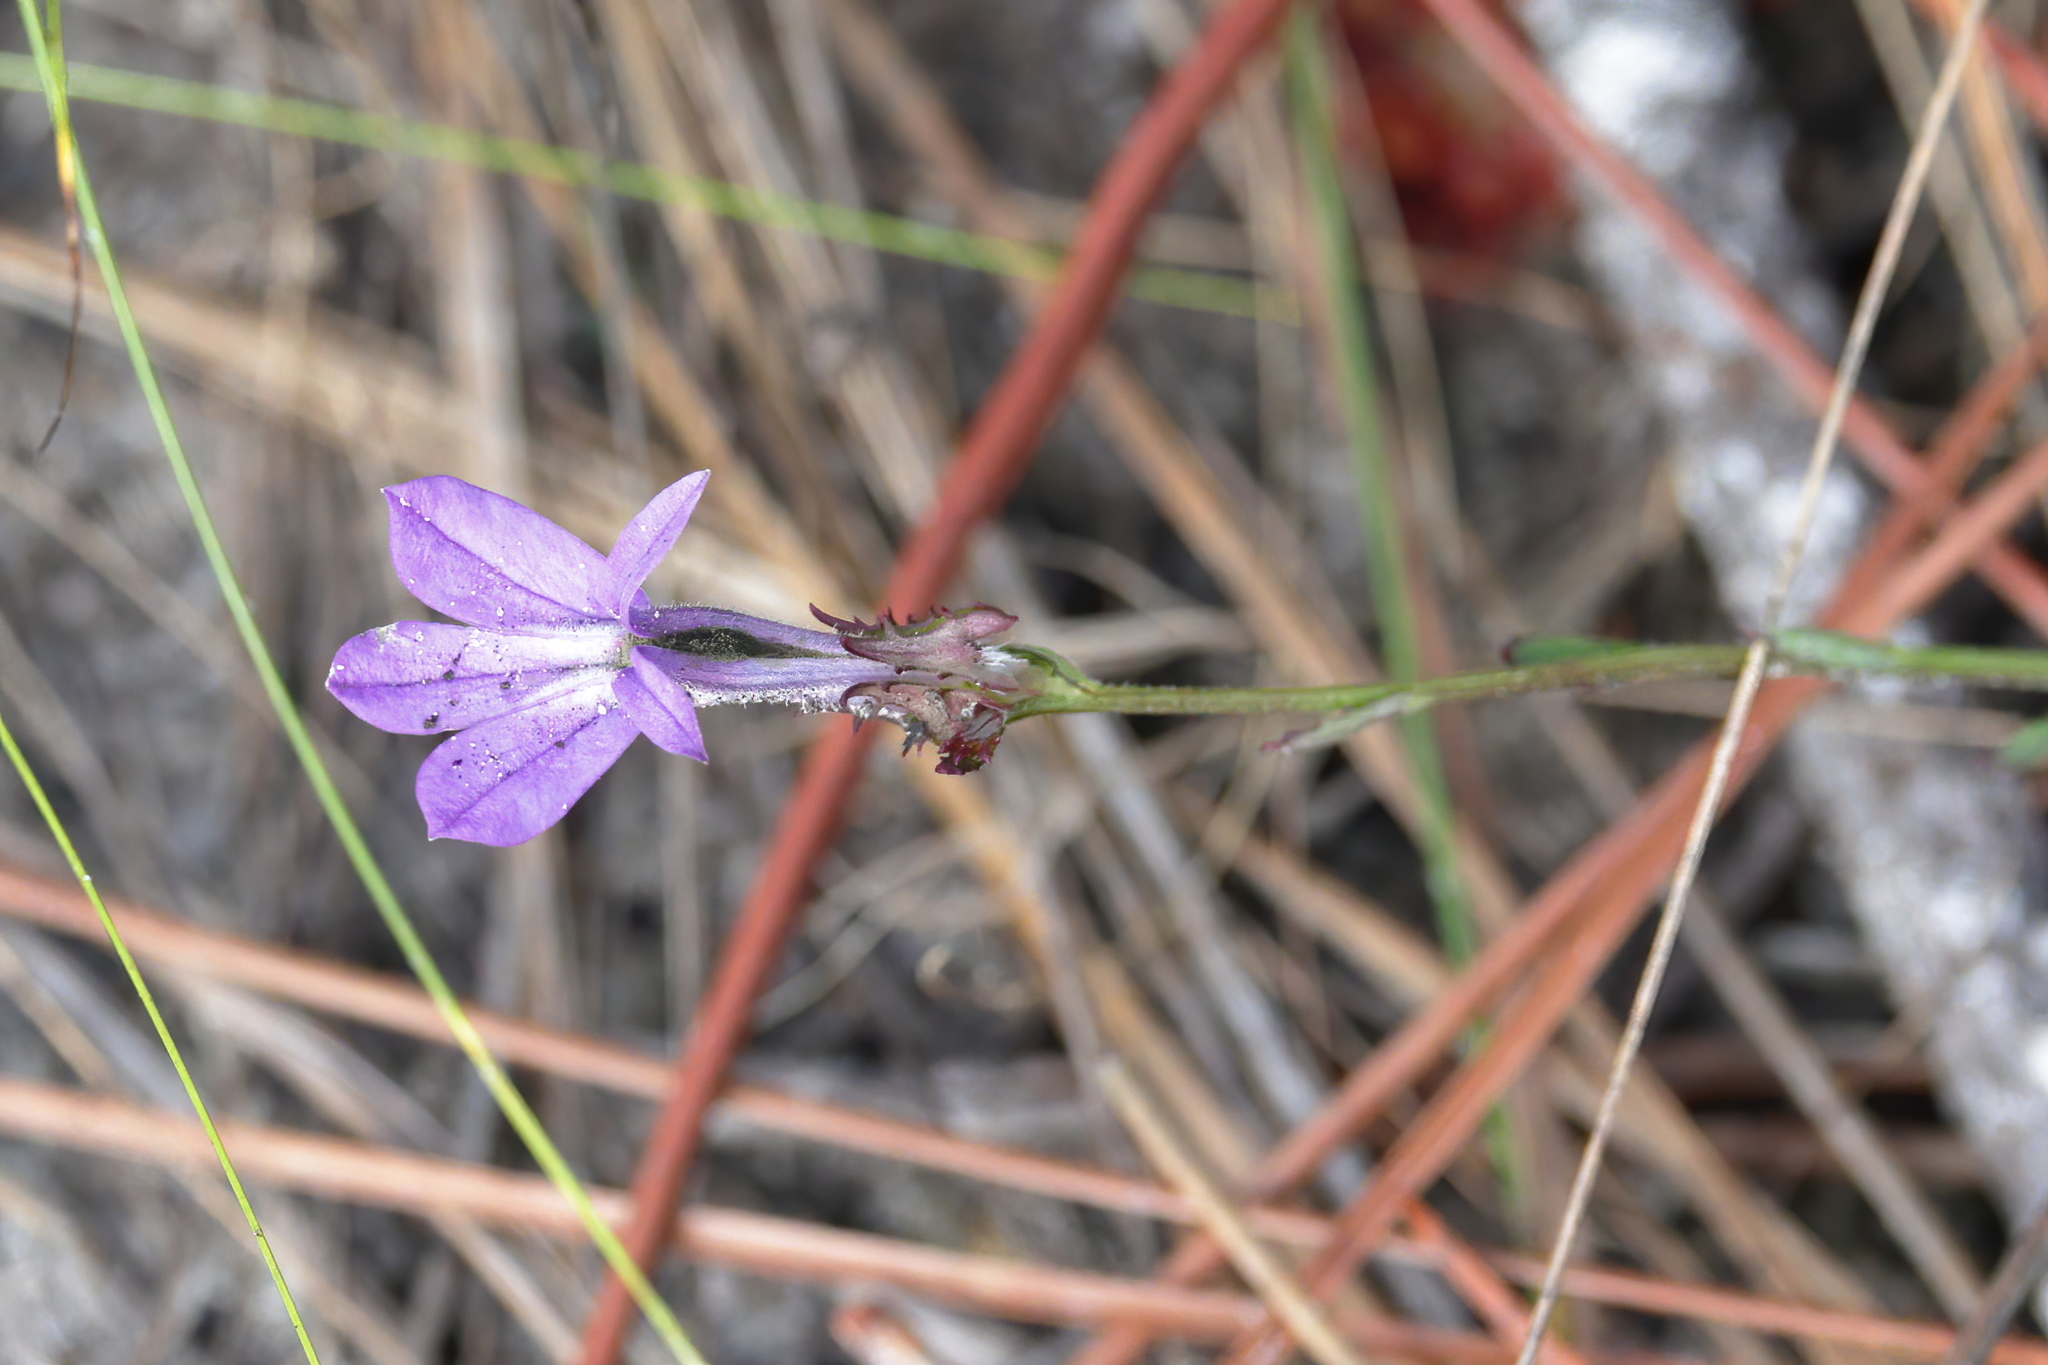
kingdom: Plantae
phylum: Tracheophyta
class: Magnoliopsida
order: Asterales
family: Campanulaceae
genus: Lobelia
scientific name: Lobelia brevifolia
